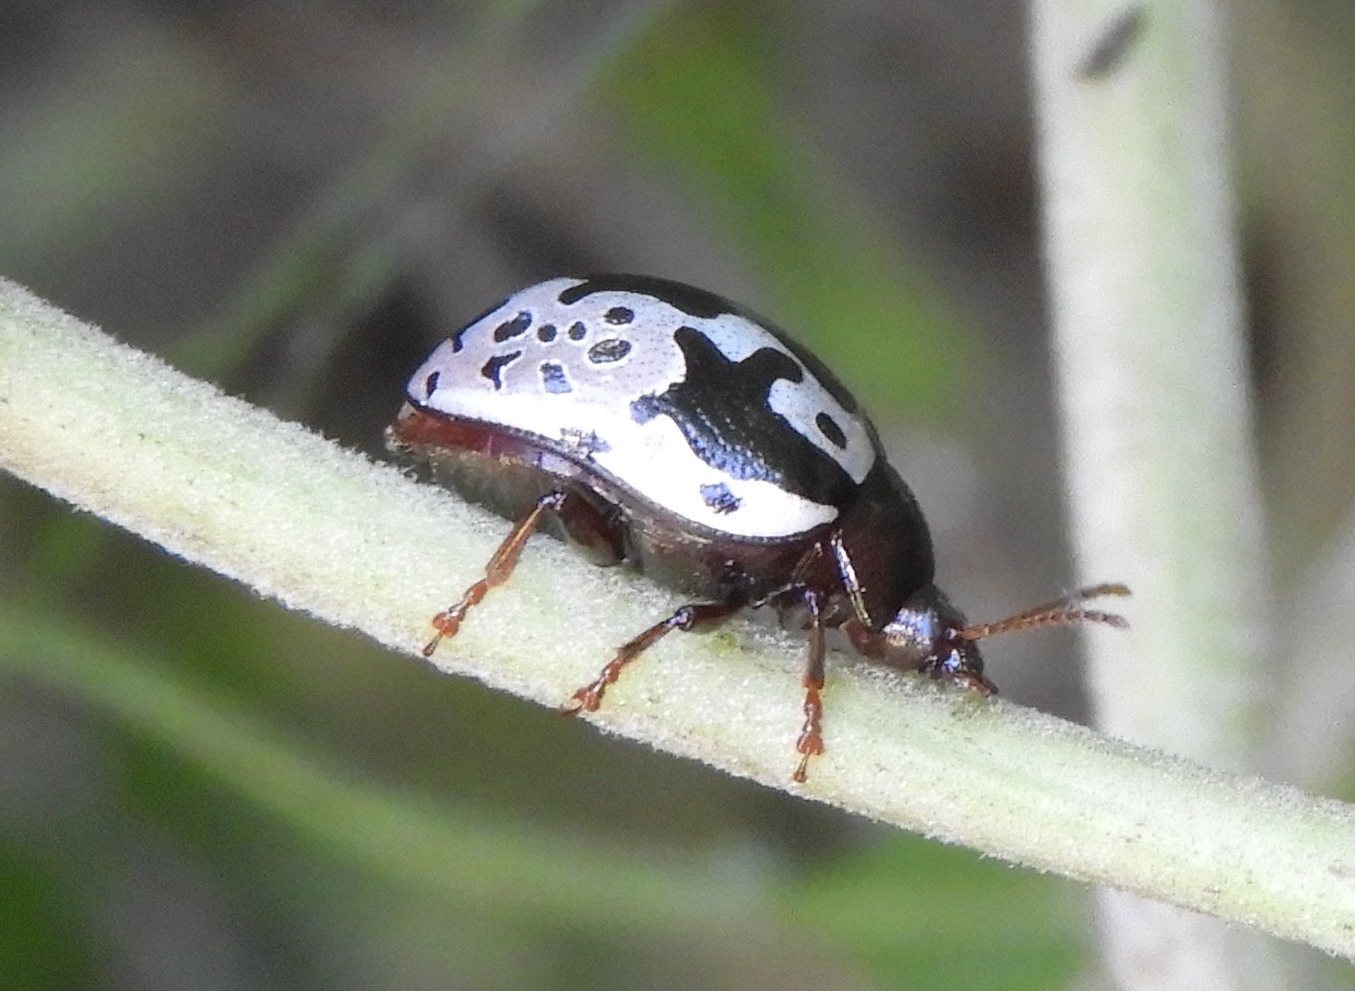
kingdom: Animalia
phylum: Arthropoda
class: Insecta
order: Coleoptera
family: Chrysomelidae
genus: Calligrapha
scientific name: Calligrapha intermedia
